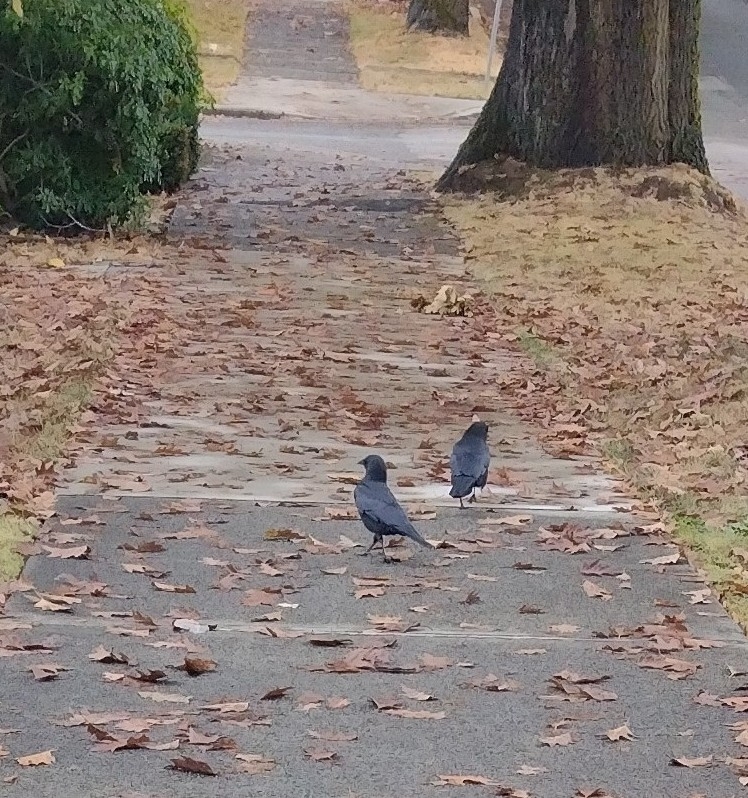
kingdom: Animalia
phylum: Chordata
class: Aves
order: Passeriformes
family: Corvidae
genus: Corvus
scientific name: Corvus brachyrhynchos
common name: American crow
